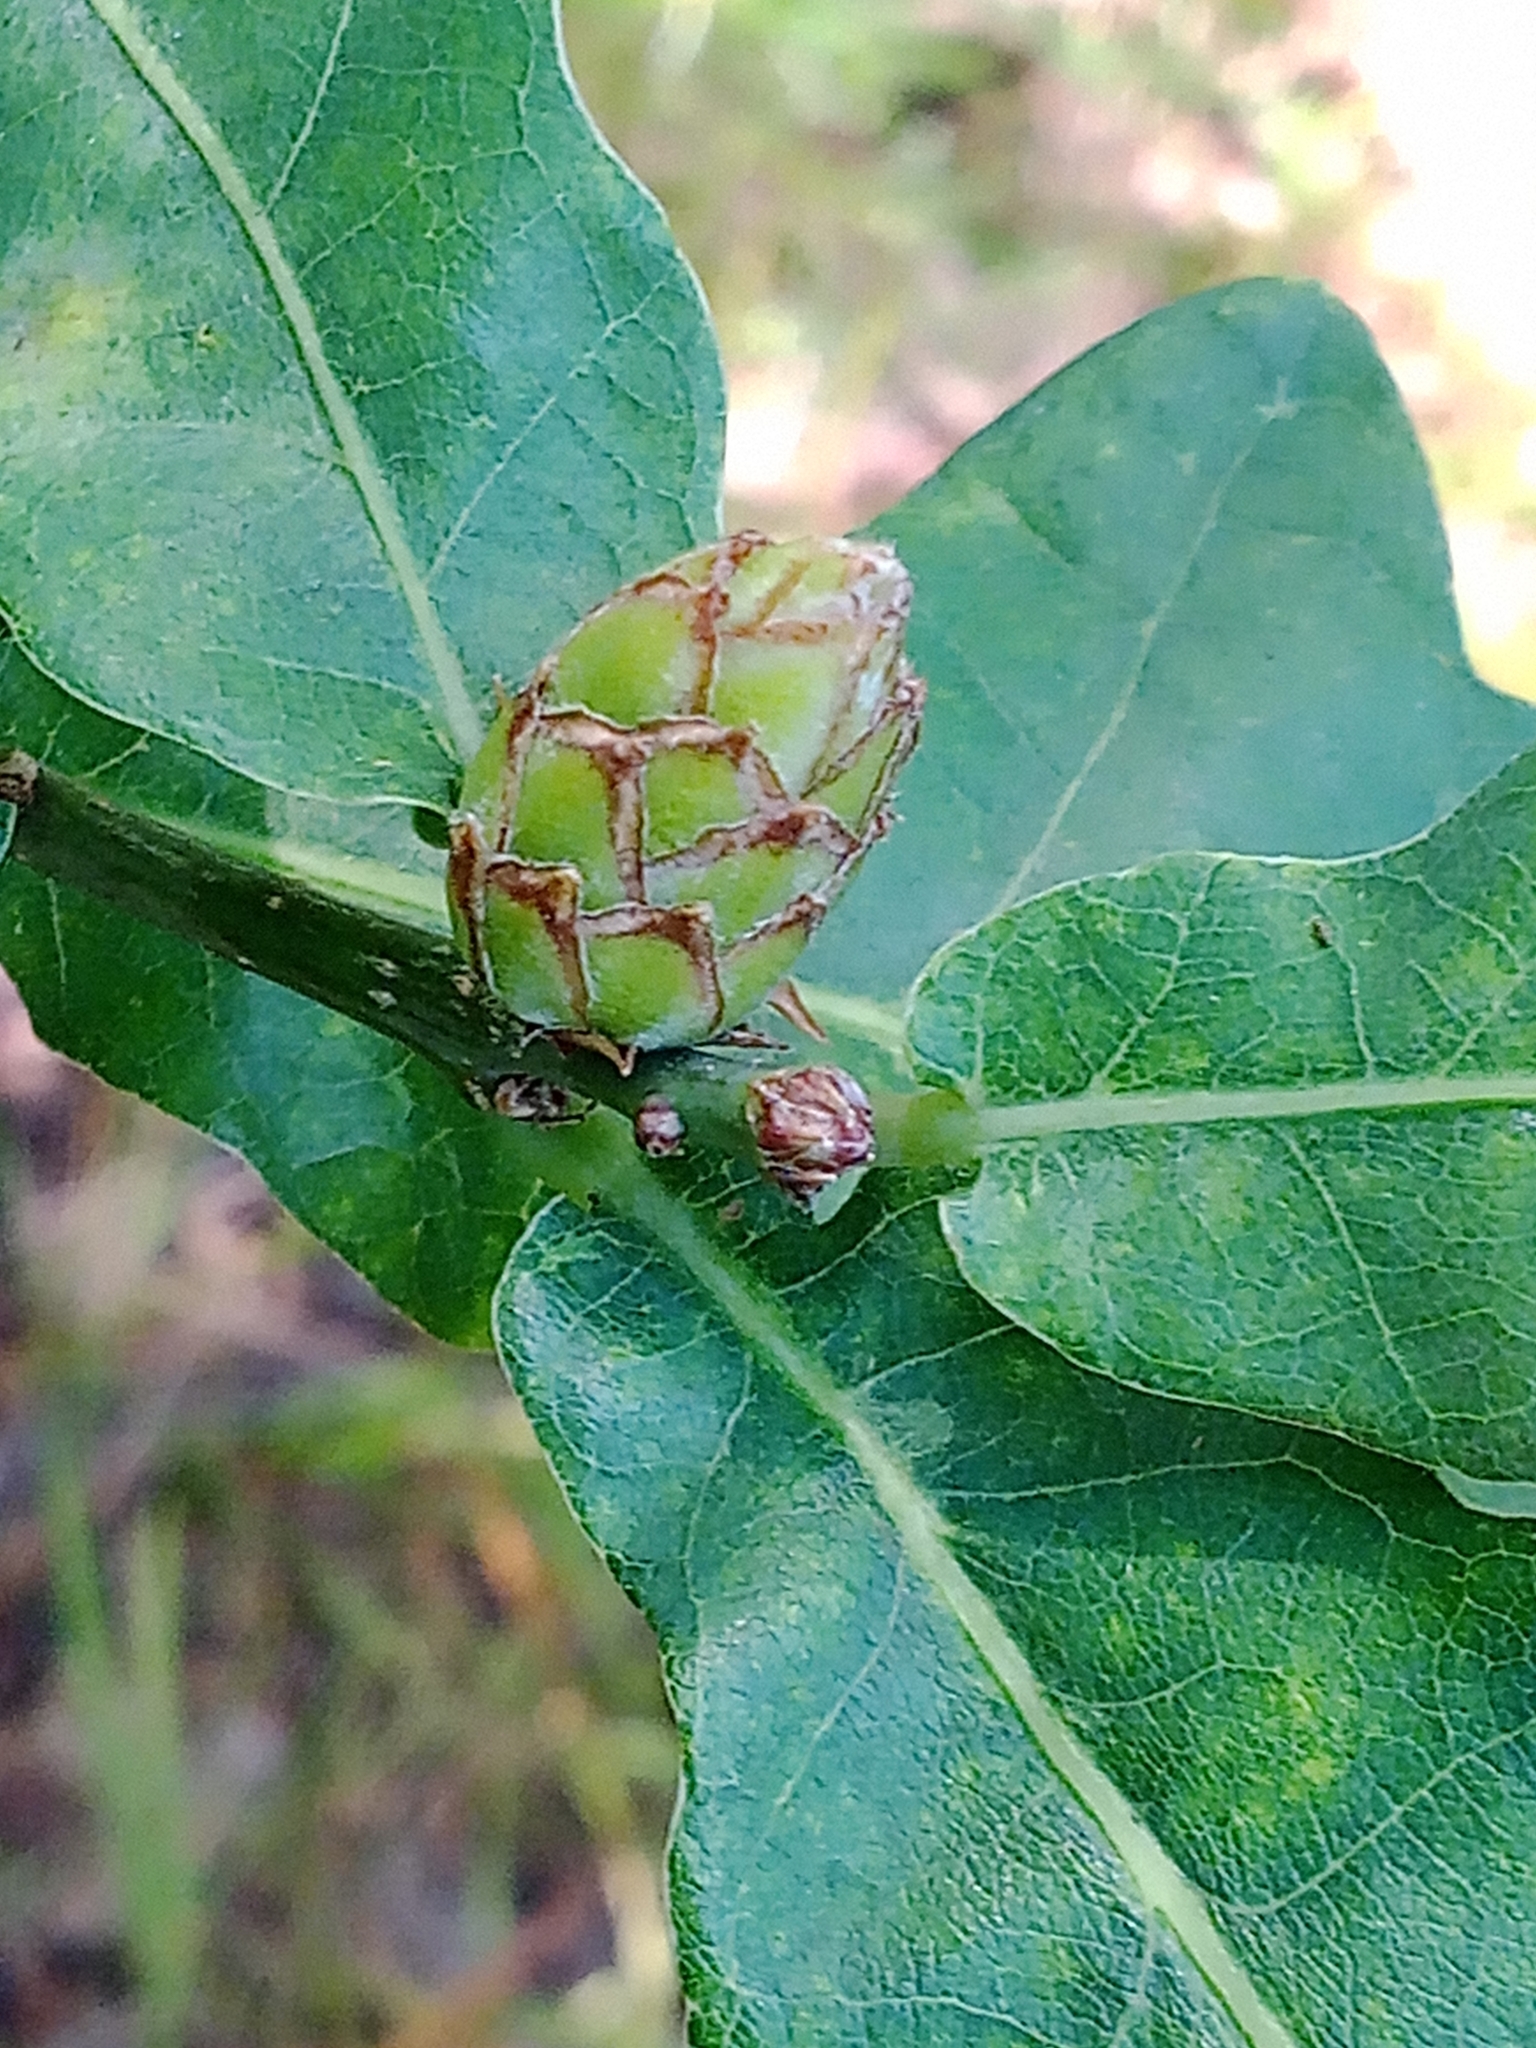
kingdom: Animalia
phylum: Arthropoda
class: Insecta
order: Hymenoptera
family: Cynipidae
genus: Andricus
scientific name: Andricus foecundatrix
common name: Artichoke gall
